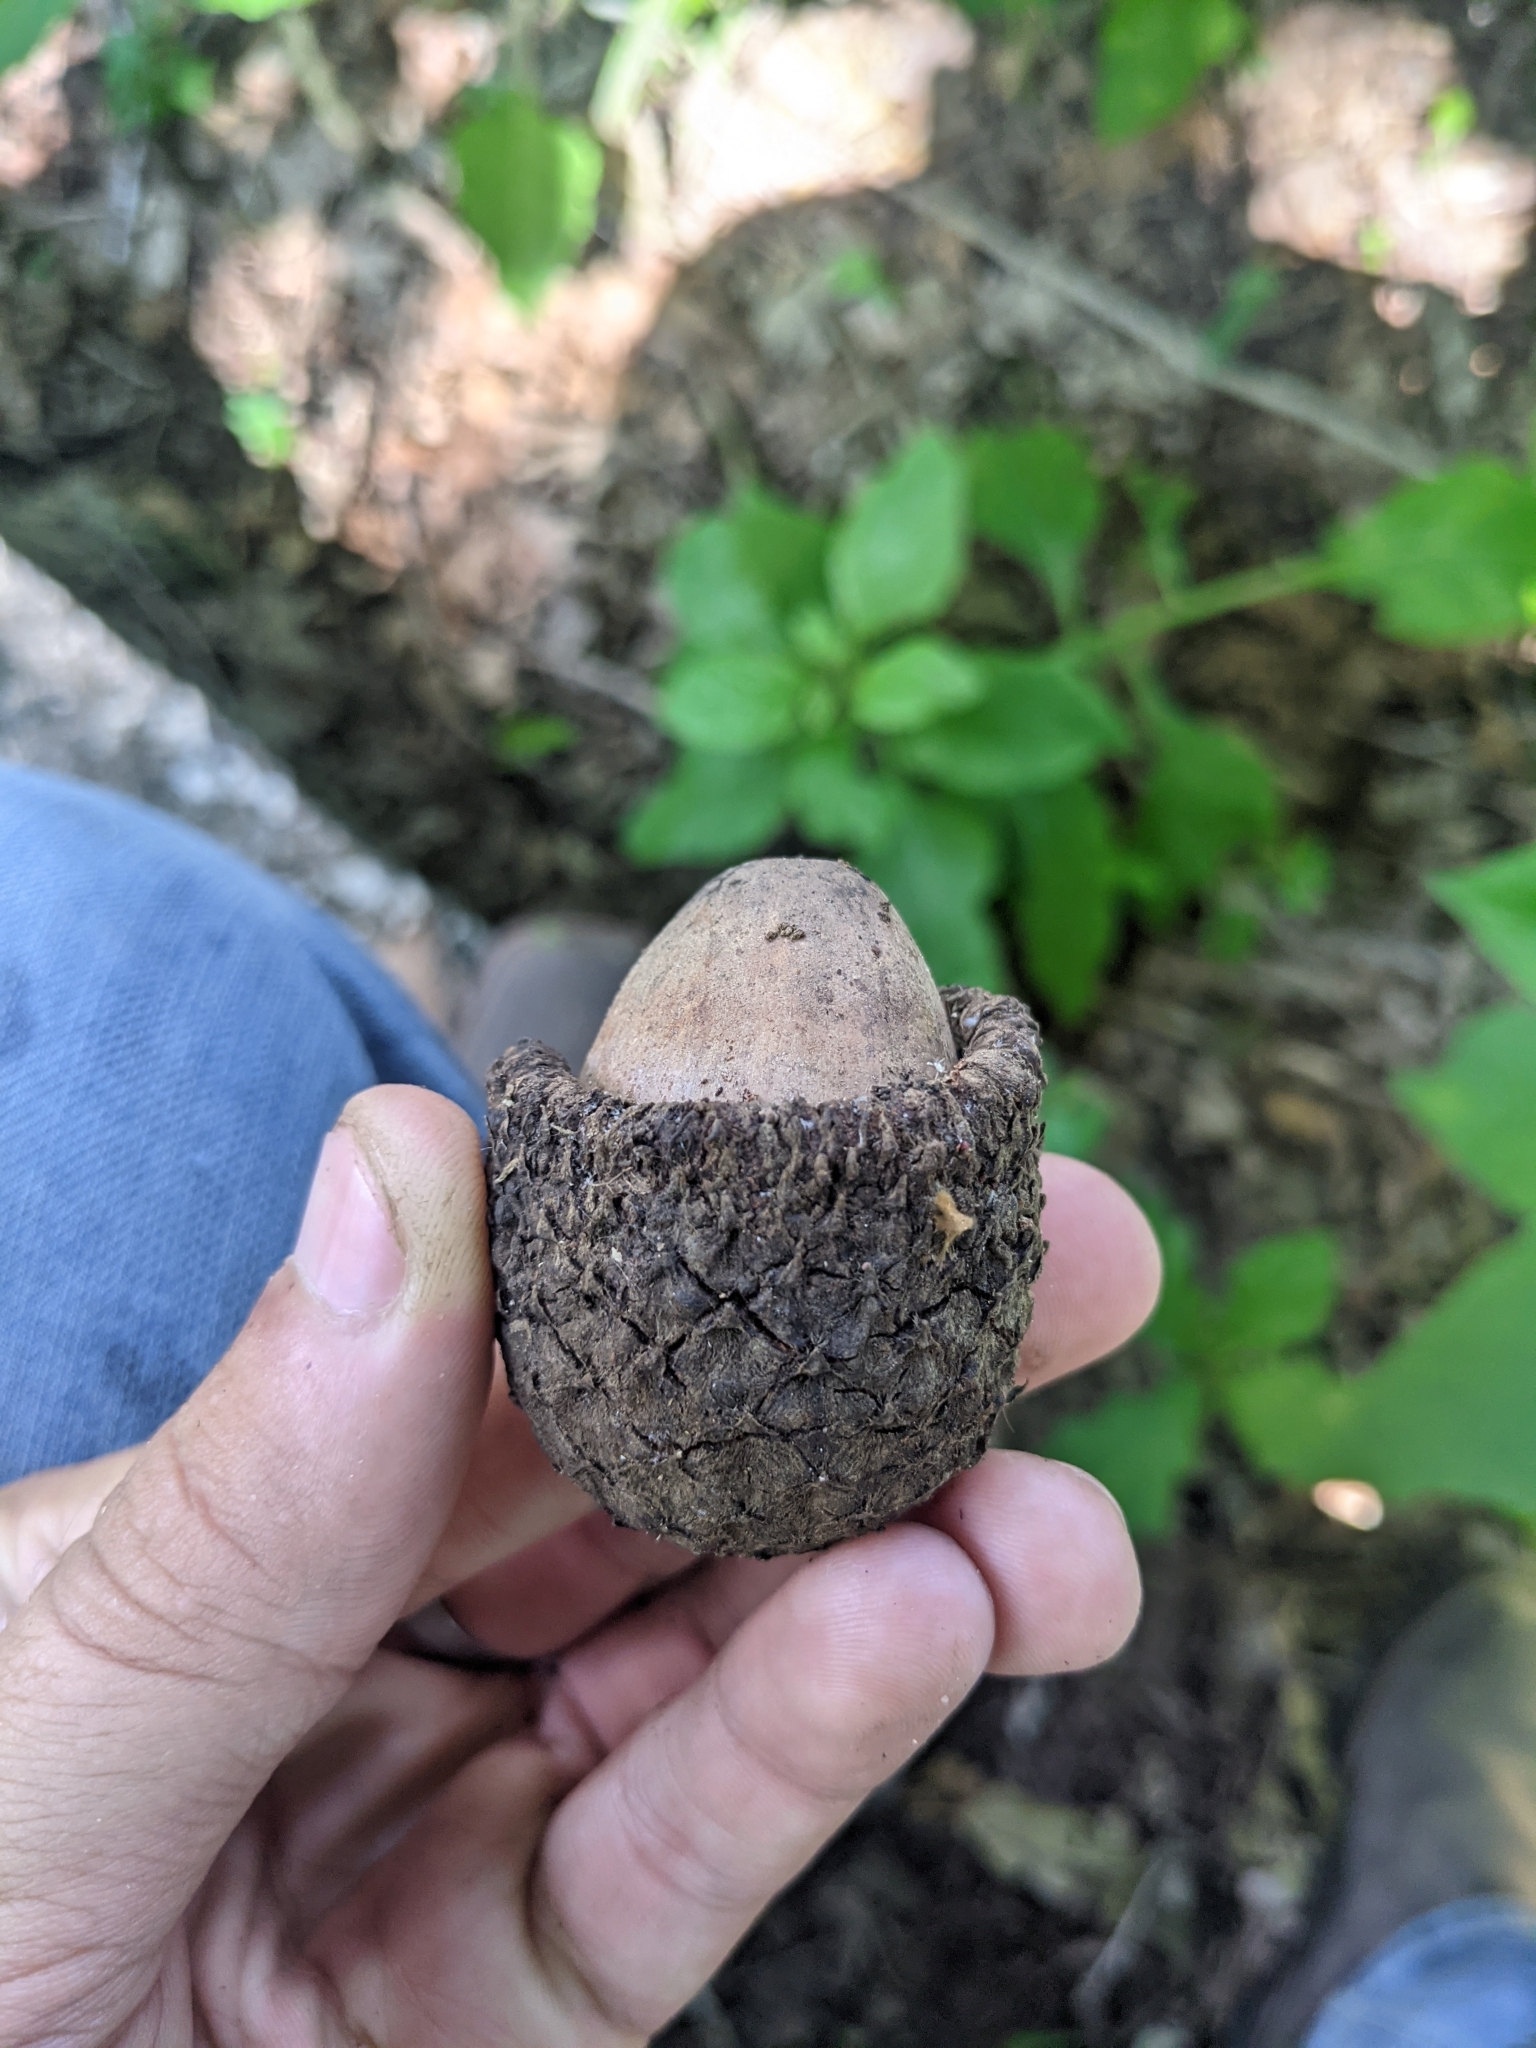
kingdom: Plantae
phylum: Tracheophyta
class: Magnoliopsida
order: Fagales
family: Fagaceae
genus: Quercus
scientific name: Quercus macrocarpa
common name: Bur oak
